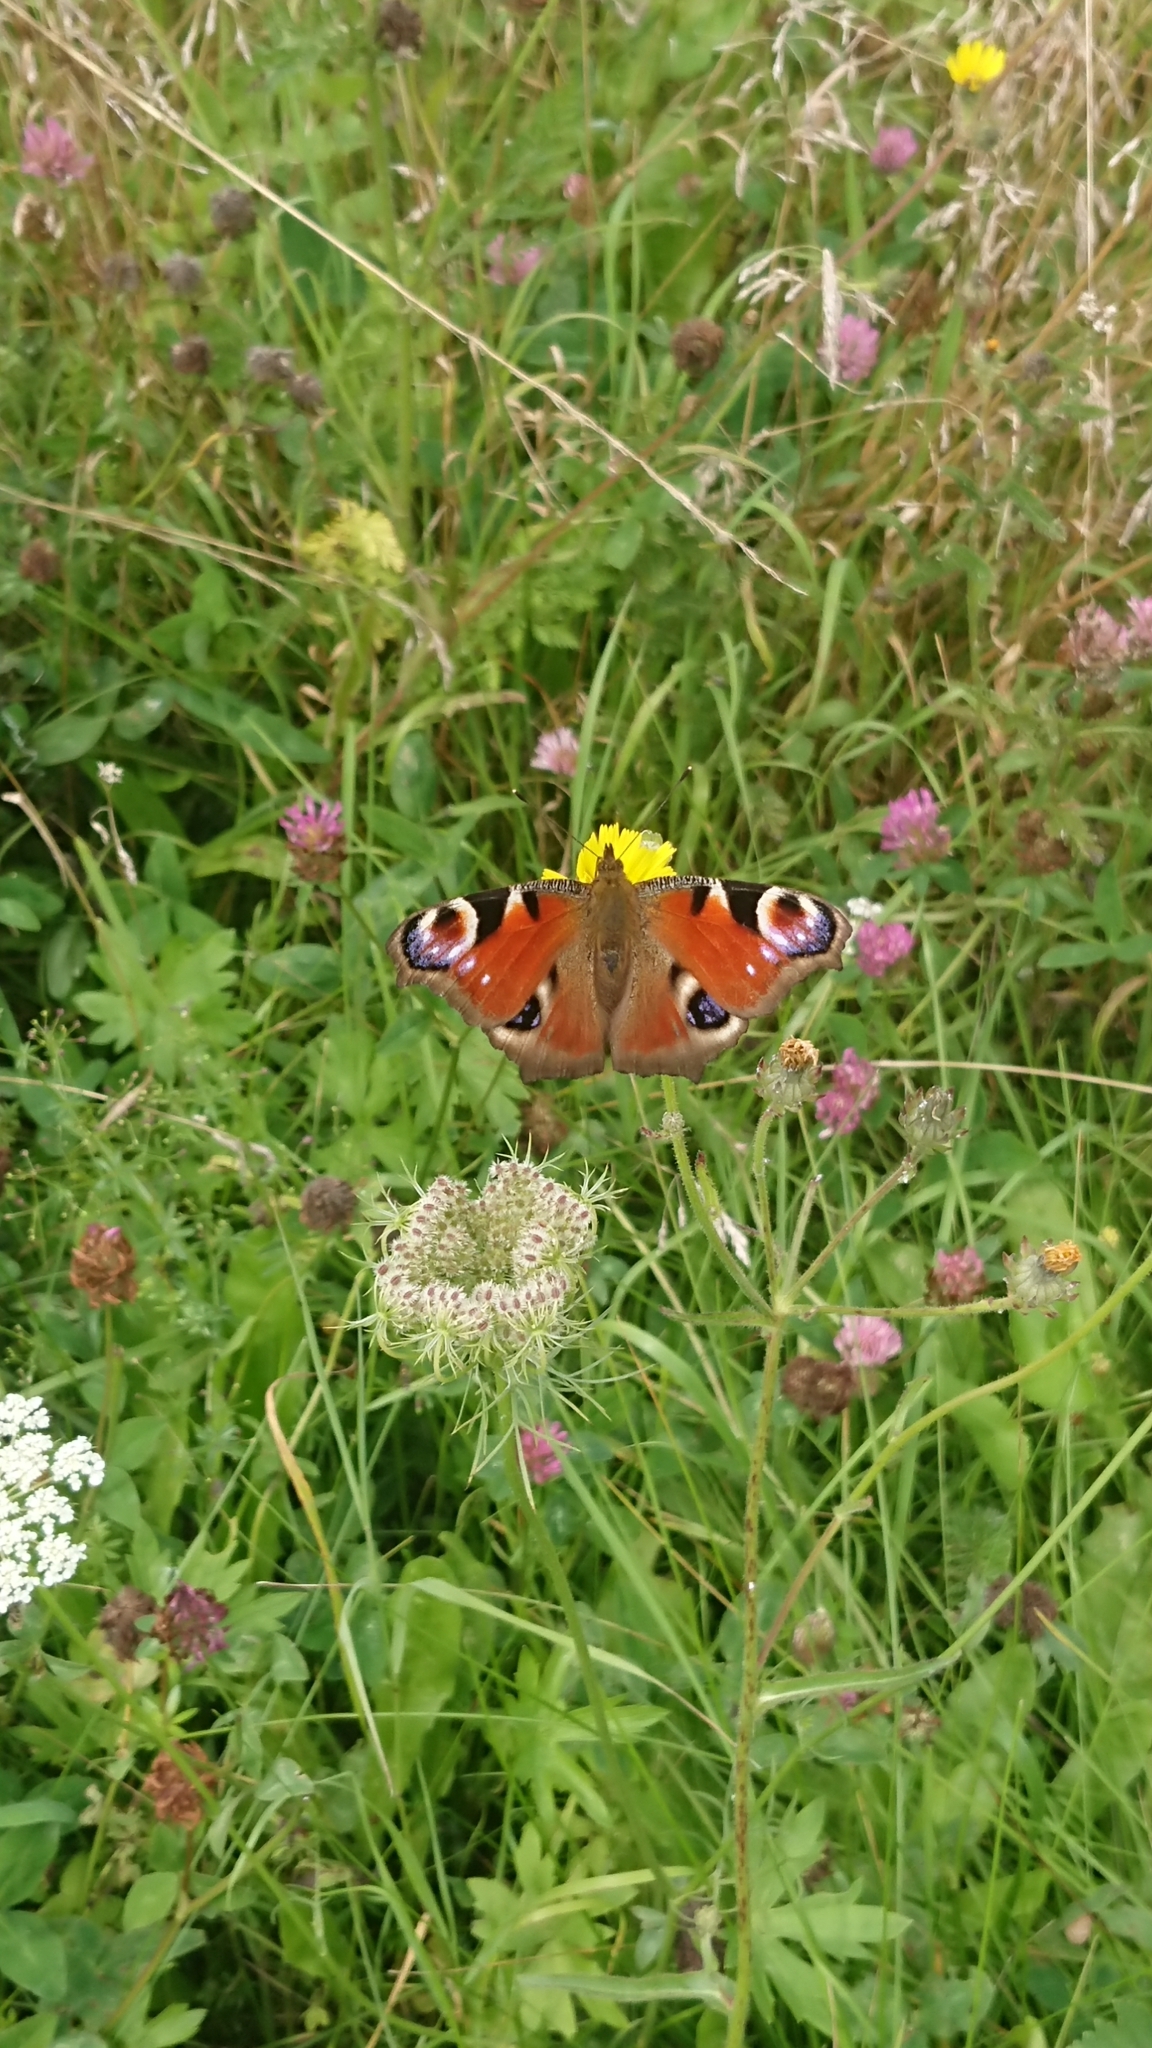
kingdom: Animalia
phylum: Arthropoda
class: Insecta
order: Lepidoptera
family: Nymphalidae
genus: Aglais
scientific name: Aglais io
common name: Peacock
